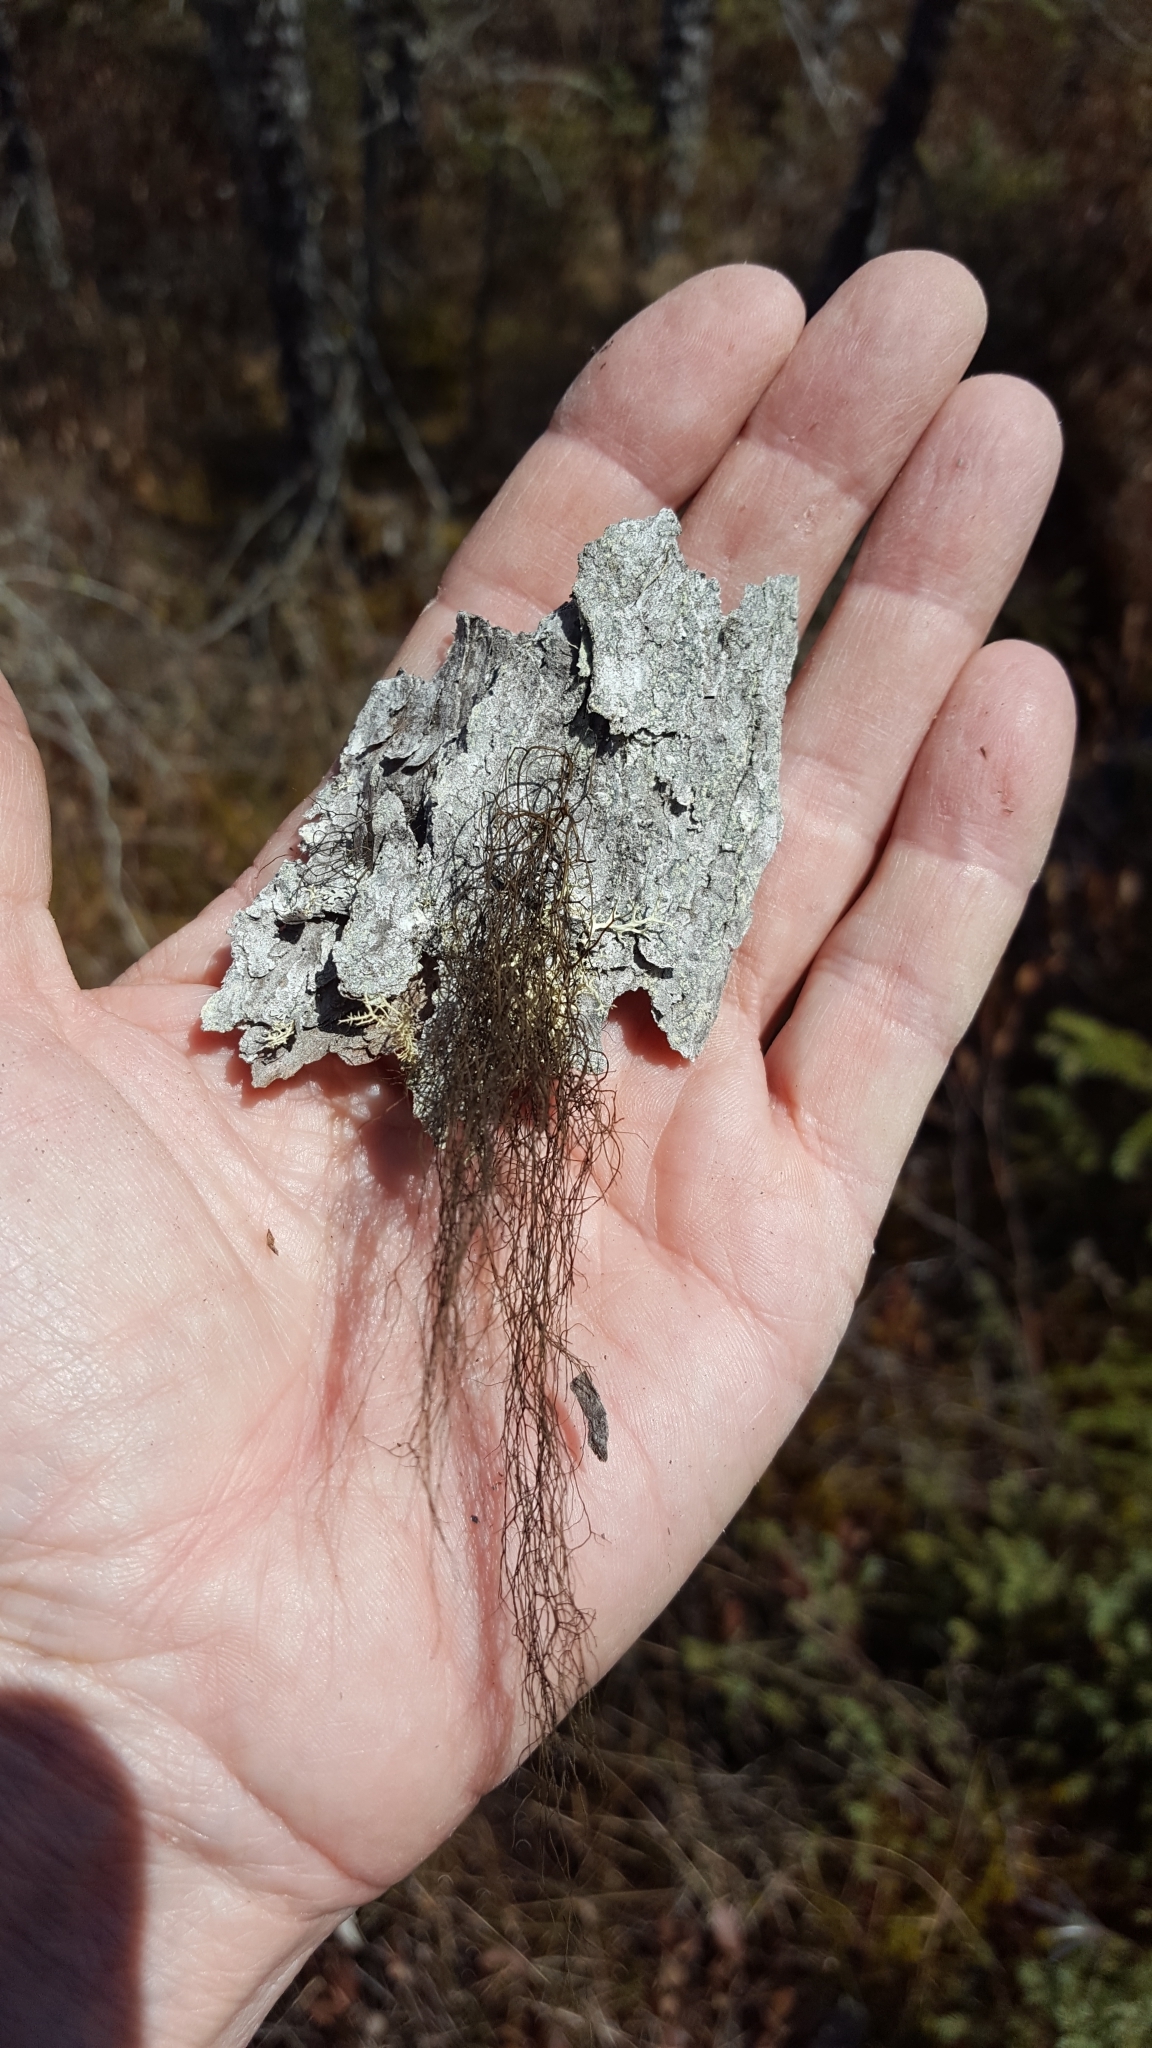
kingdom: Fungi
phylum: Ascomycota
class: Lecanoromycetes
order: Lecanorales
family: Parmeliaceae
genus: Bryoria
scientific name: Bryoria trichodes
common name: Inelegant horsehair lichen
